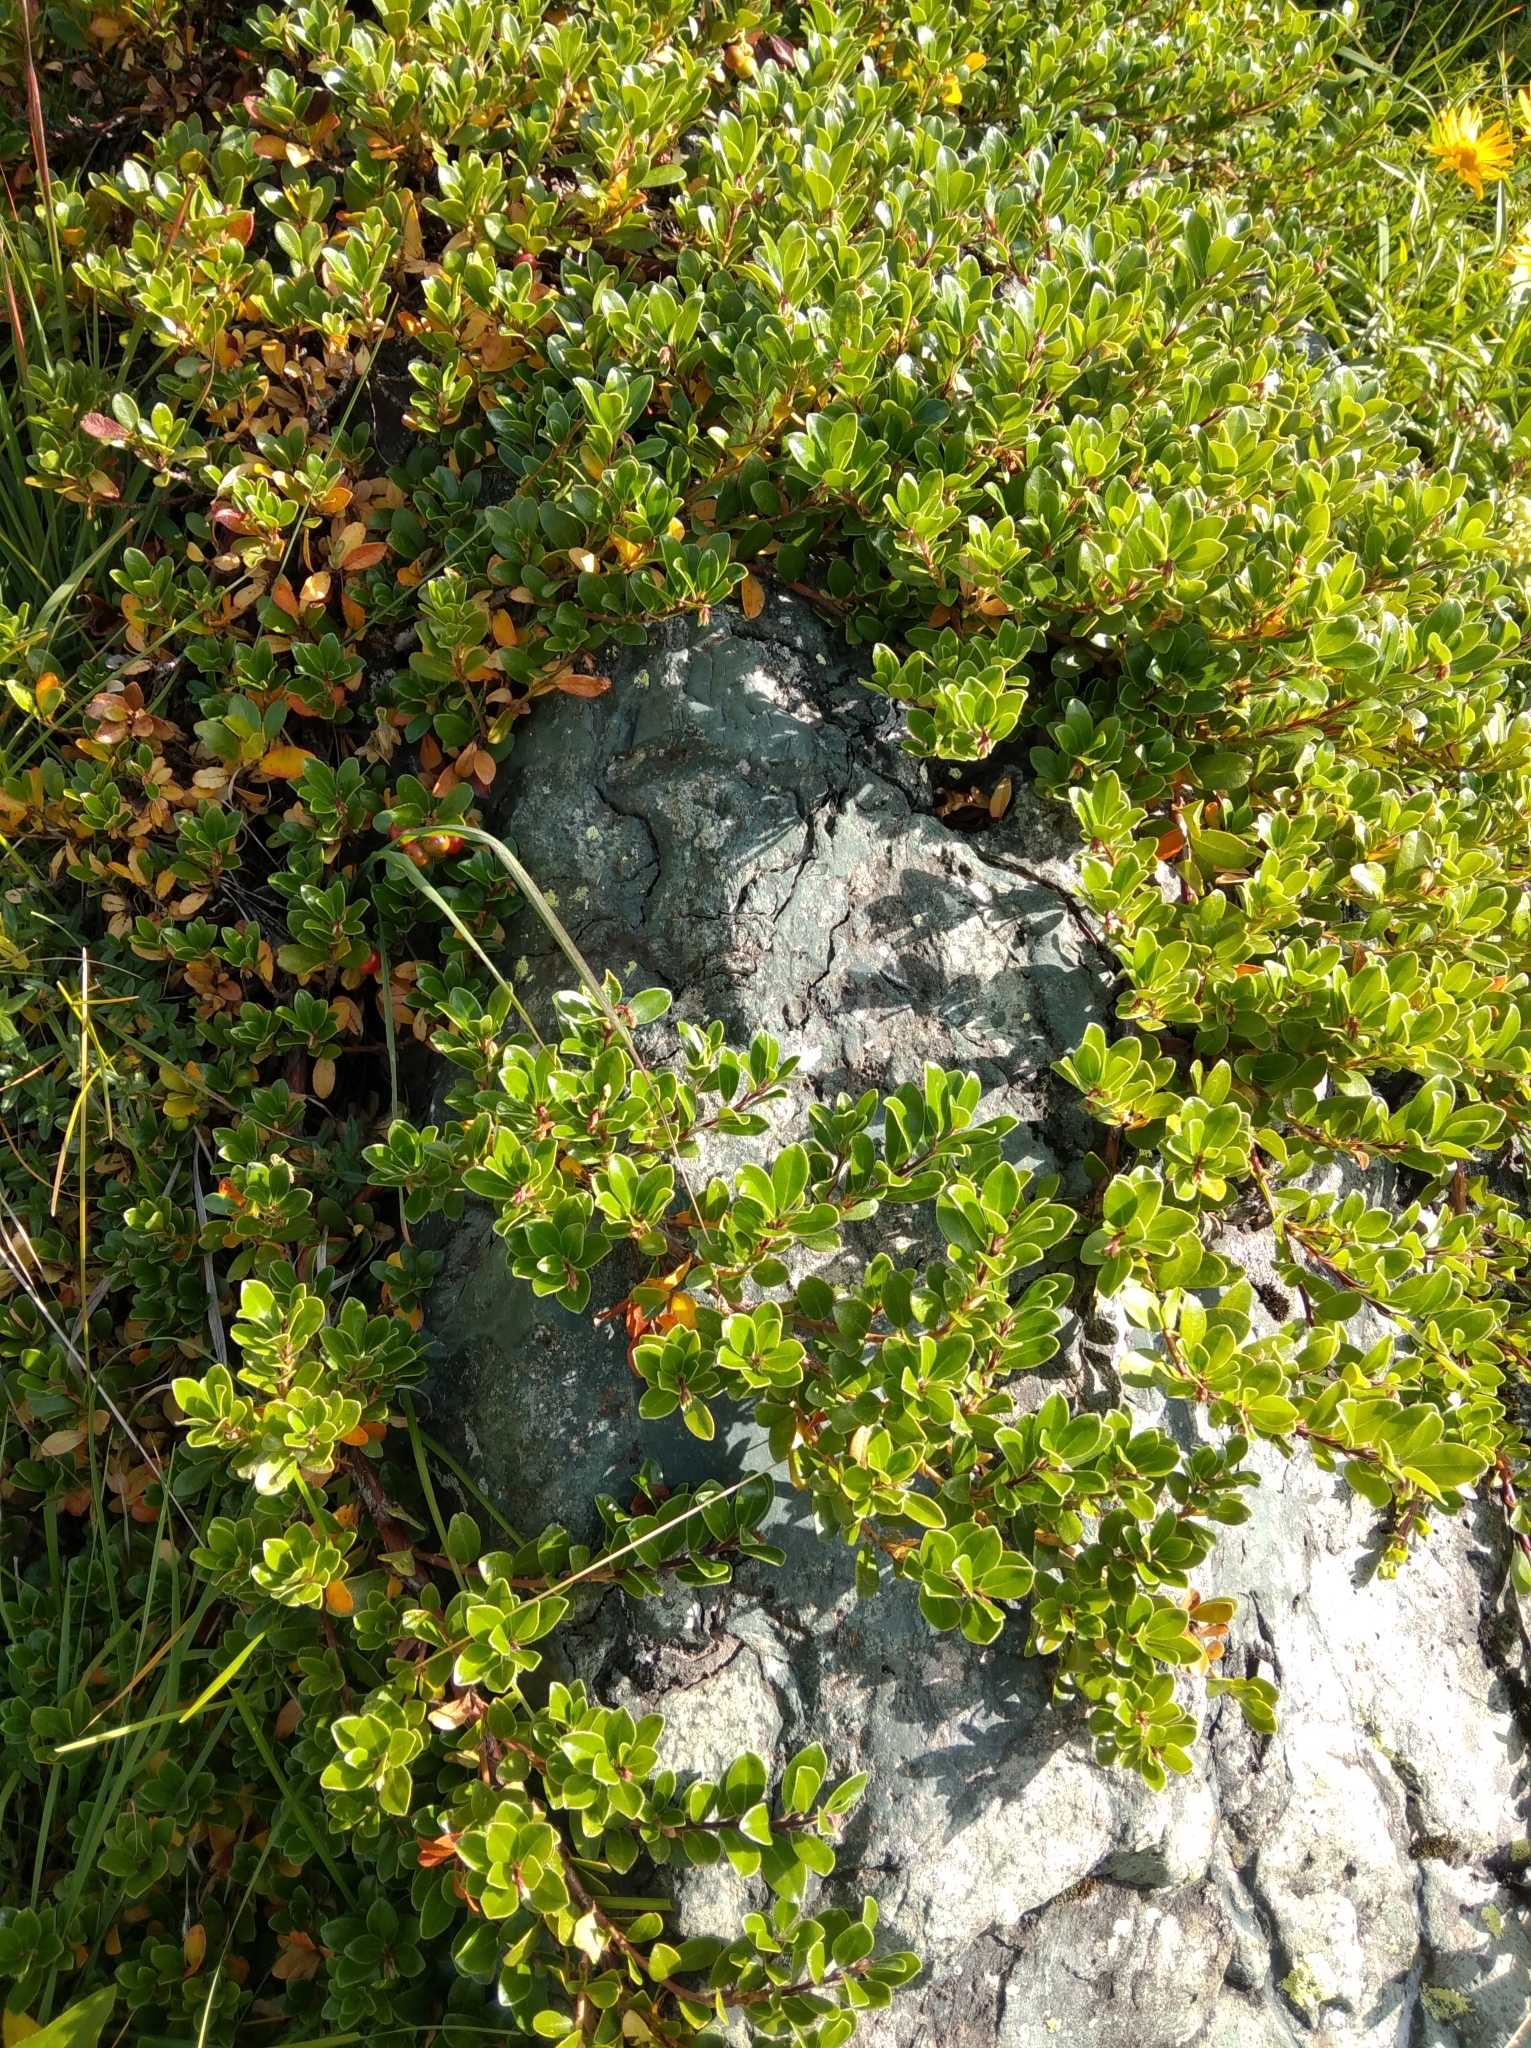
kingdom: Plantae
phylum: Tracheophyta
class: Magnoliopsida
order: Ericales
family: Ericaceae
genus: Arctostaphylos
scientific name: Arctostaphylos uva-ursi
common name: Bearberry
